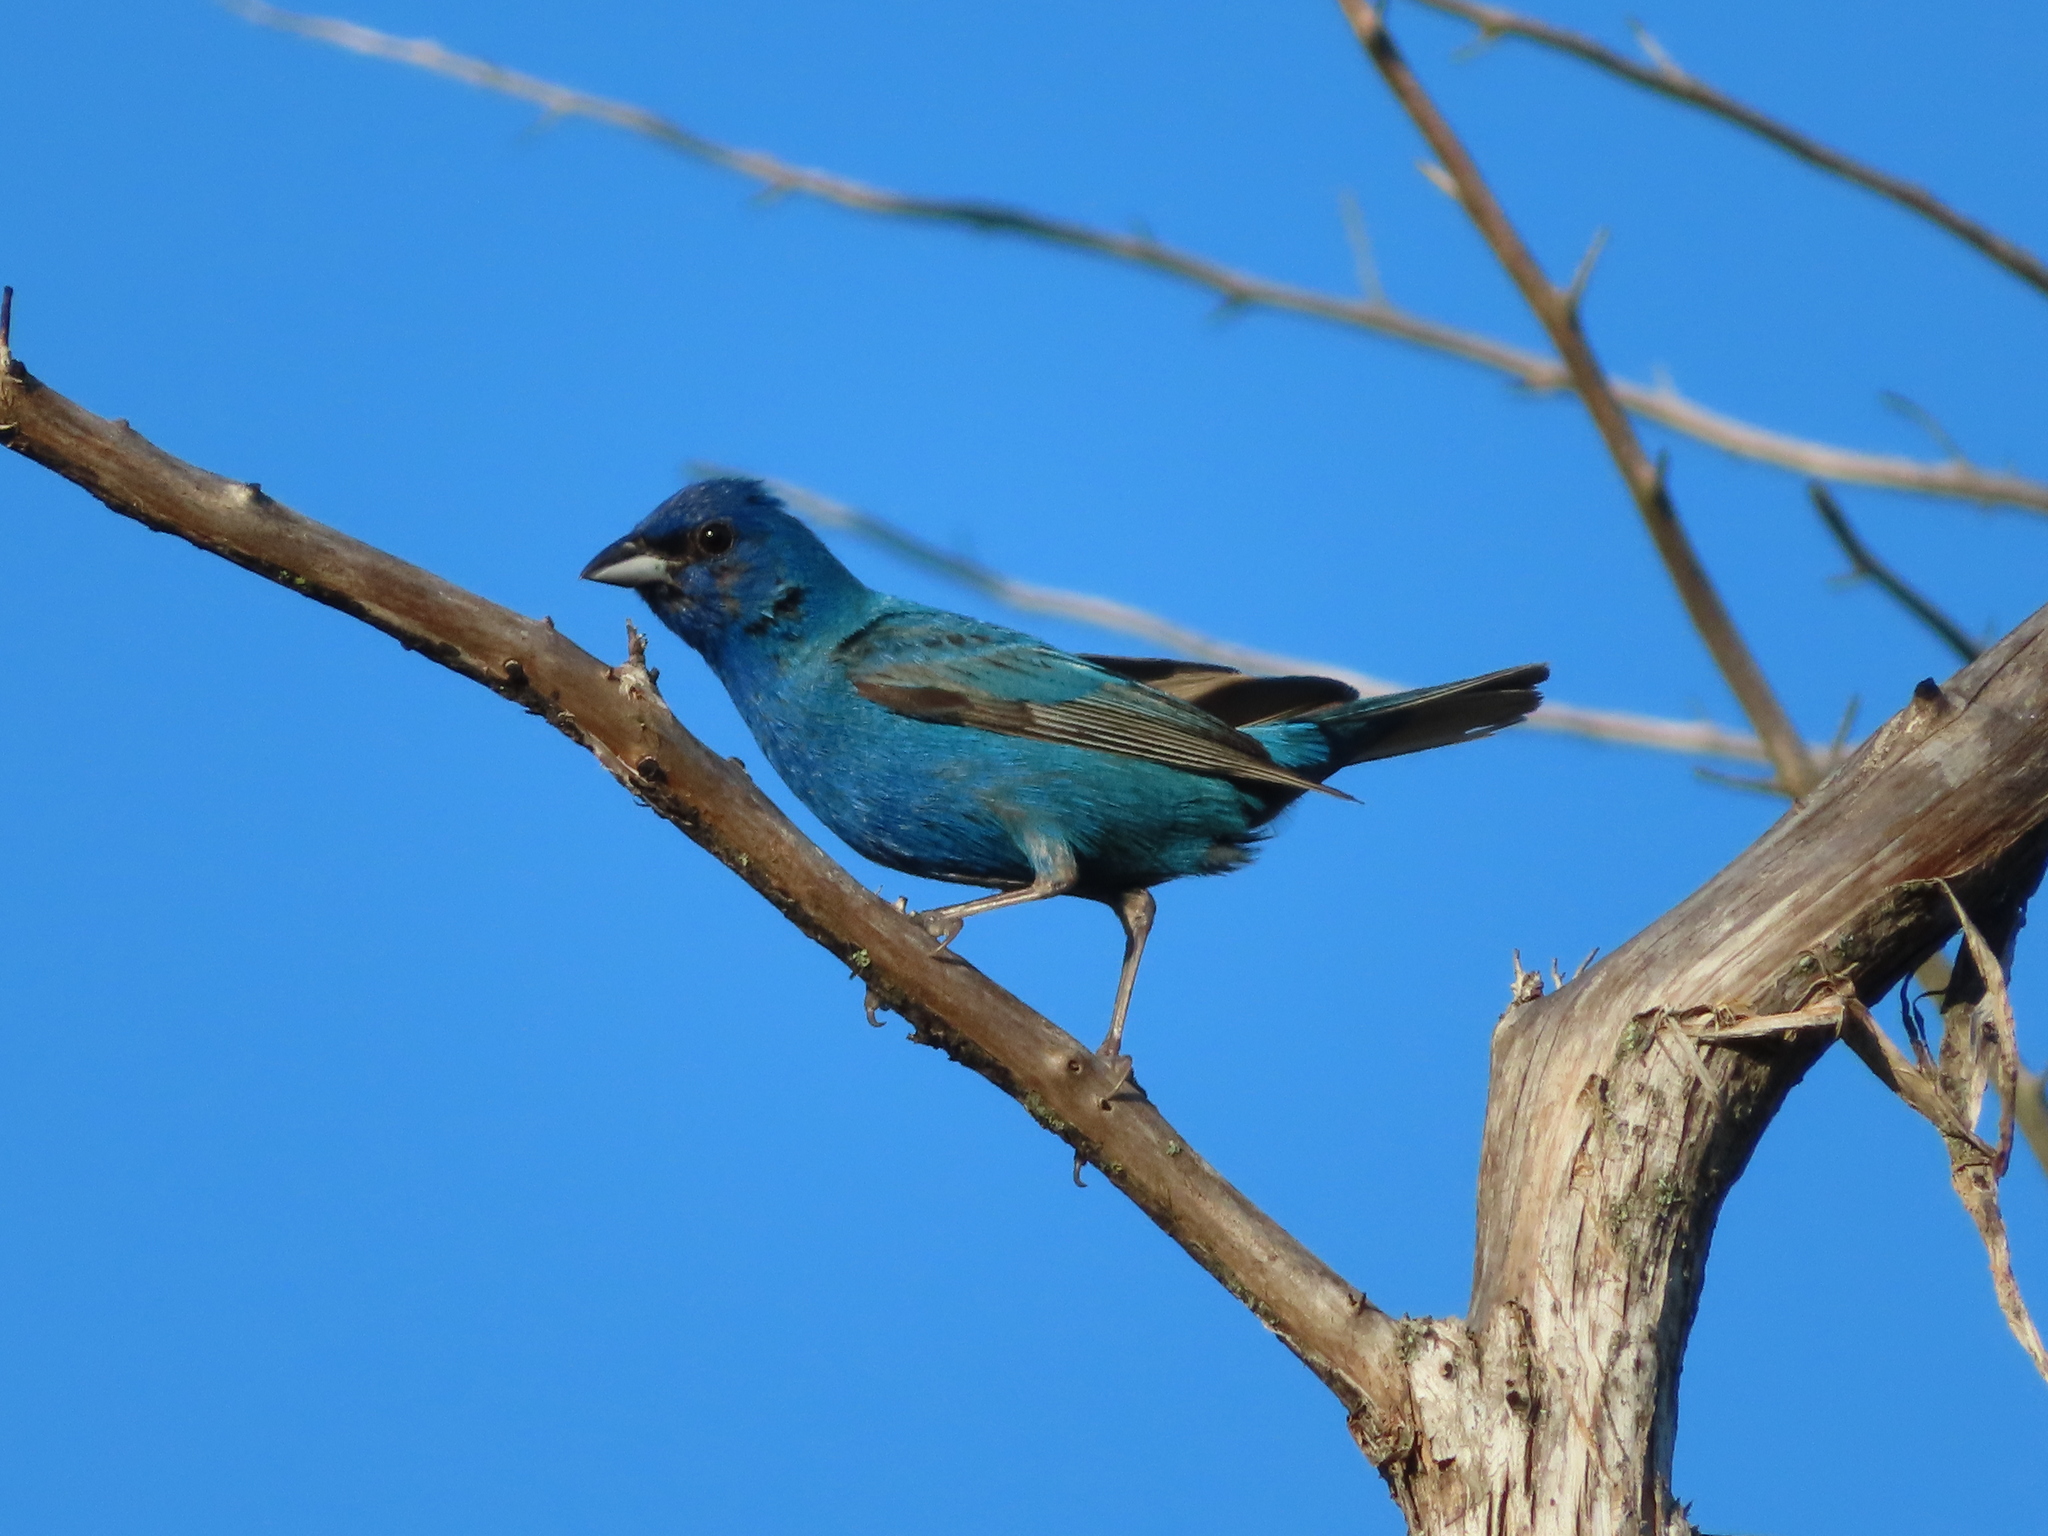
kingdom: Animalia
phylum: Chordata
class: Aves
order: Passeriformes
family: Cardinalidae
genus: Passerina
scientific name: Passerina cyanea
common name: Indigo bunting
